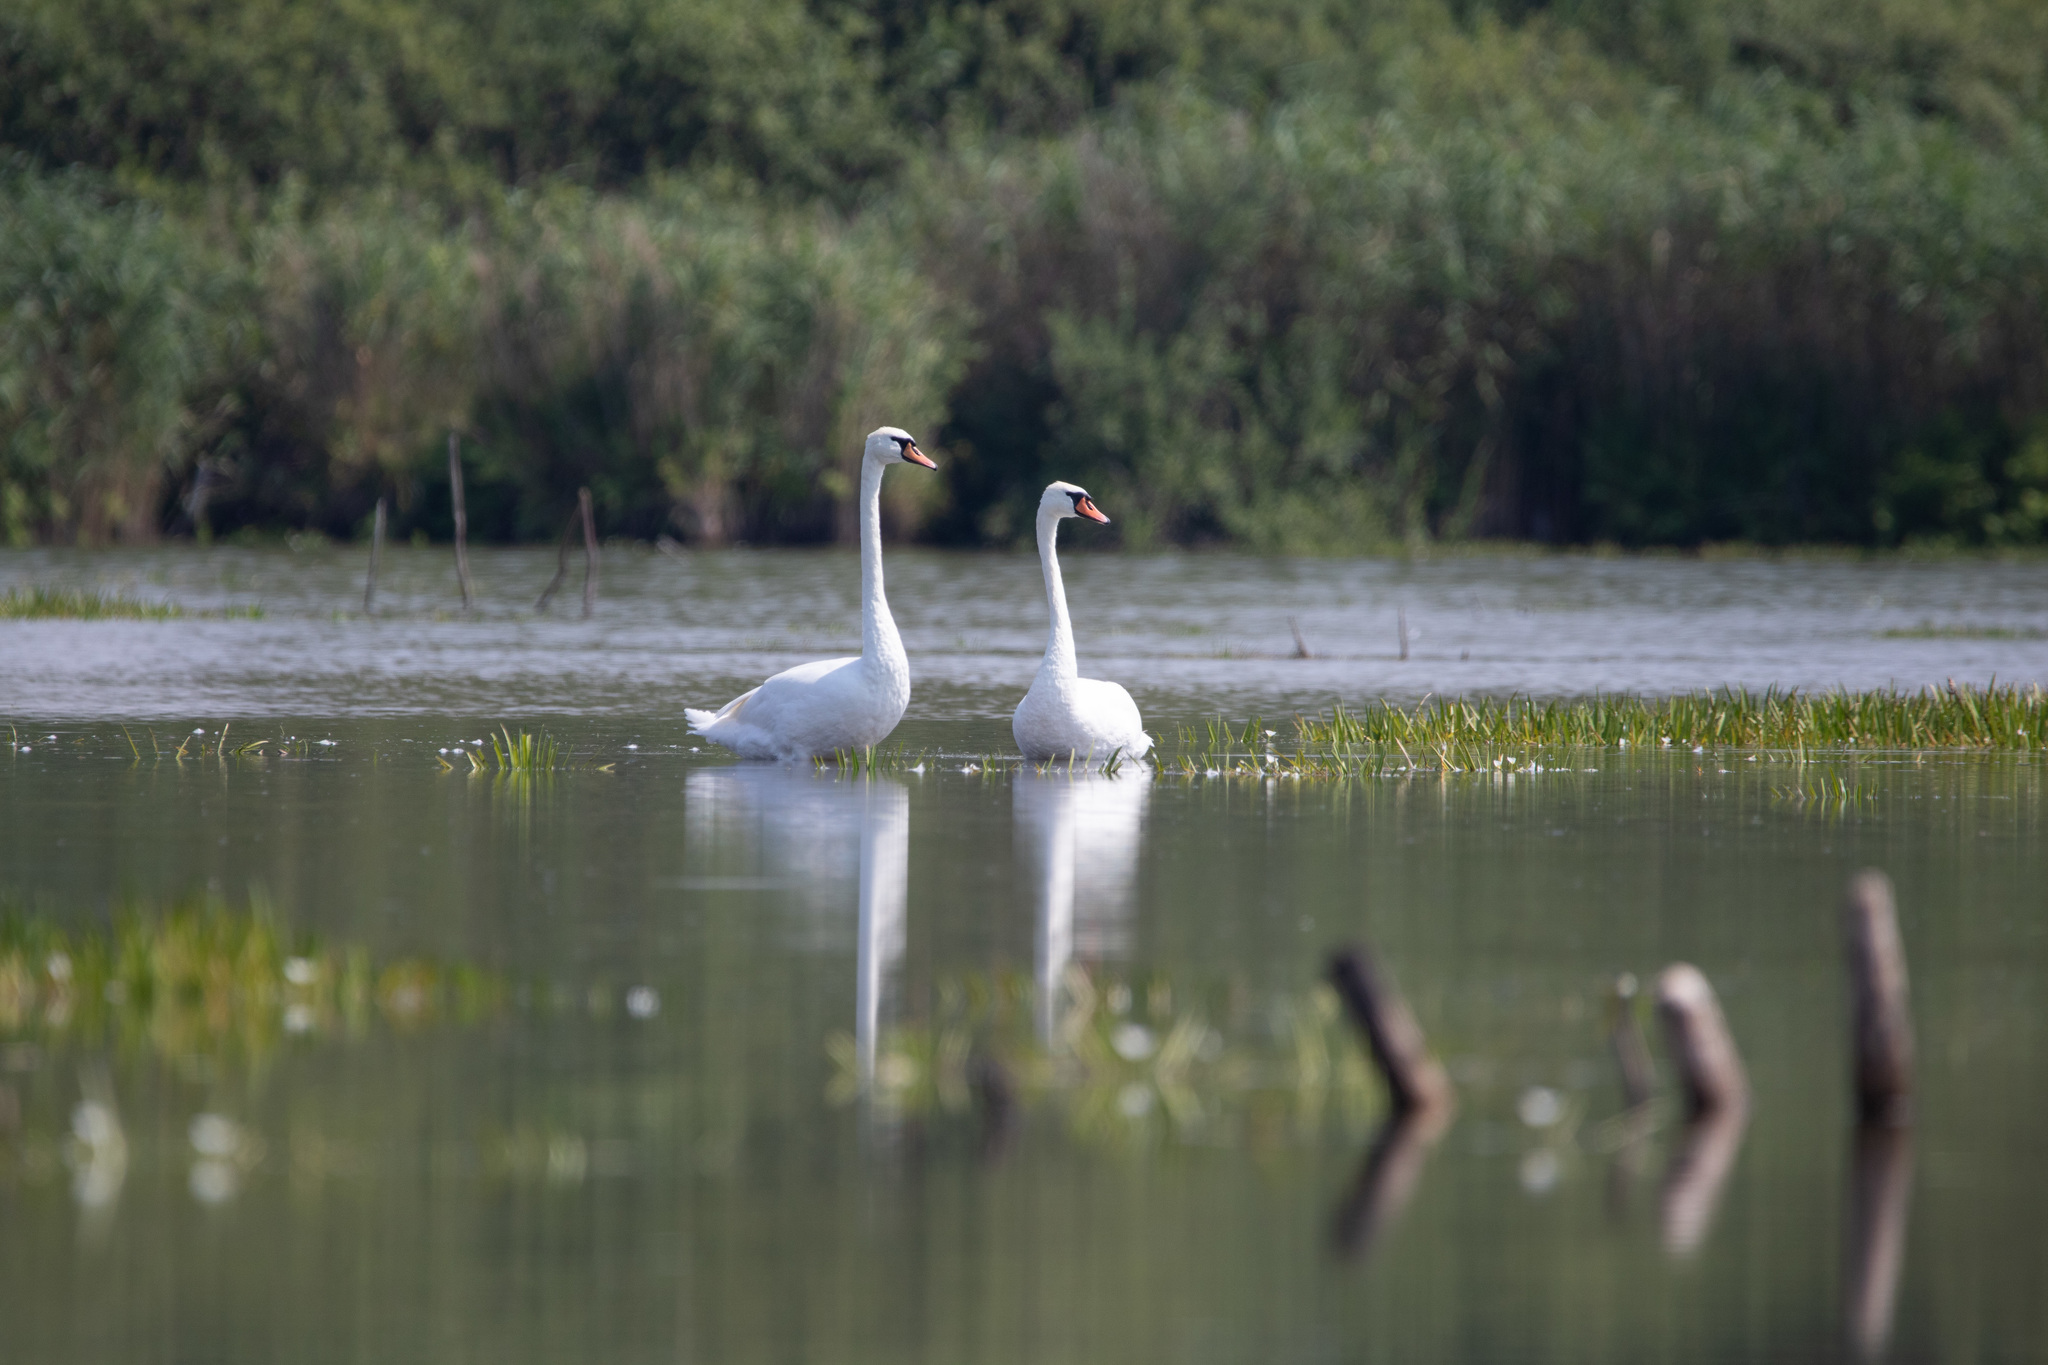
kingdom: Animalia
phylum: Chordata
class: Aves
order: Anseriformes
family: Anatidae
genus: Cygnus
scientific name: Cygnus olor
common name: Mute swan
